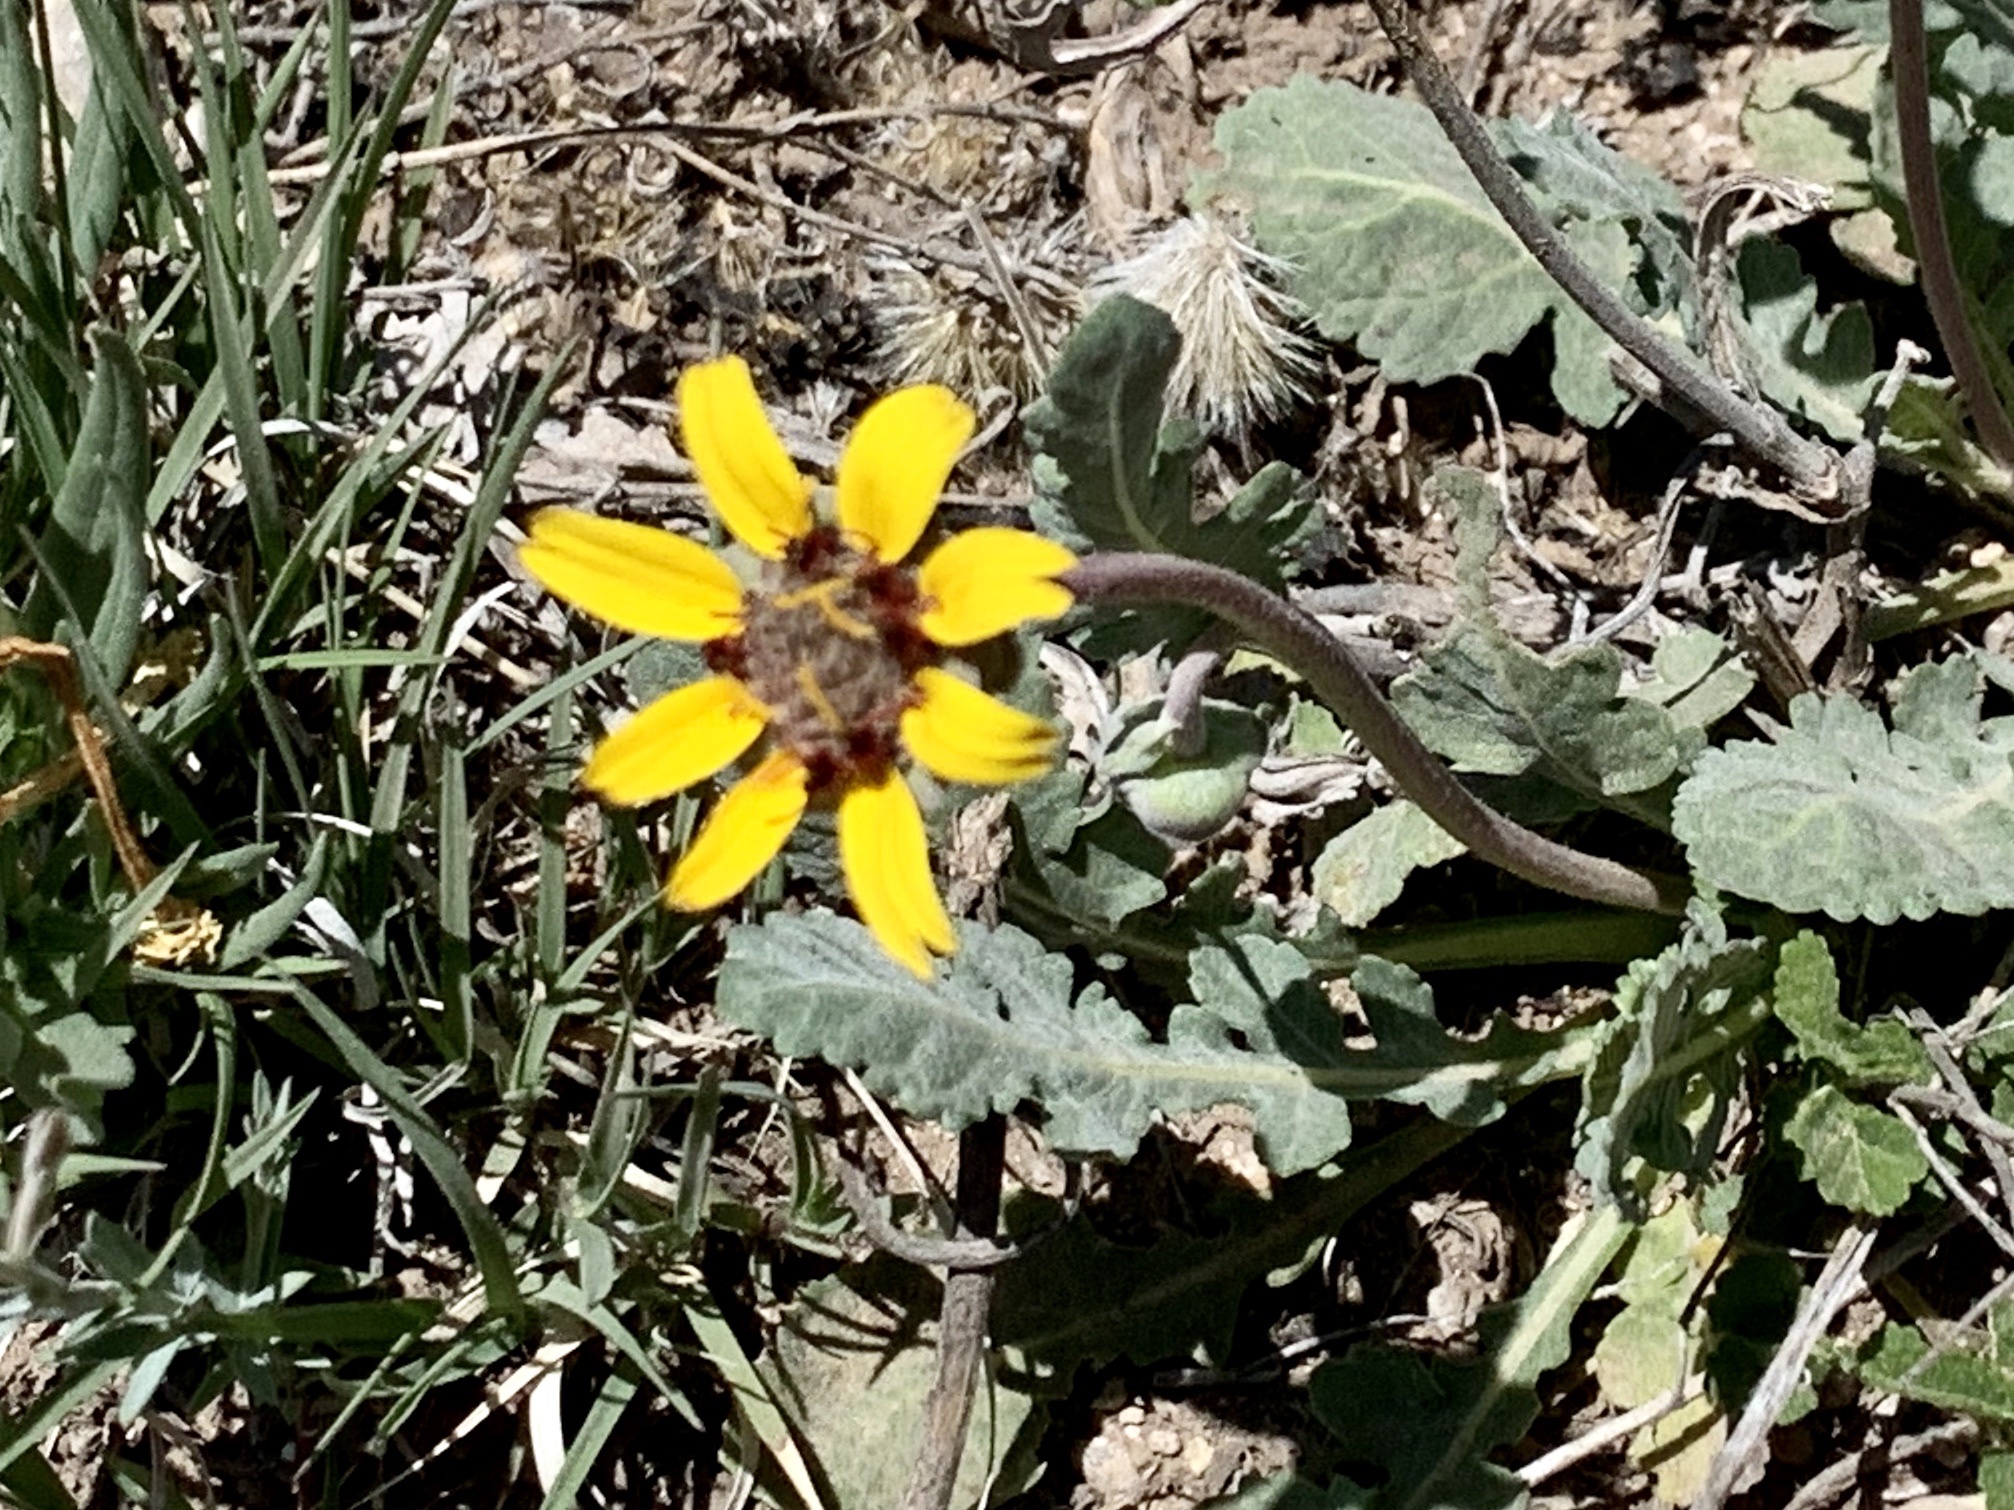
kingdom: Plantae
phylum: Tracheophyta
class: Magnoliopsida
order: Asterales
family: Asteraceae
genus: Berlandiera
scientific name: Berlandiera lyrata
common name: Chocolate-flower
